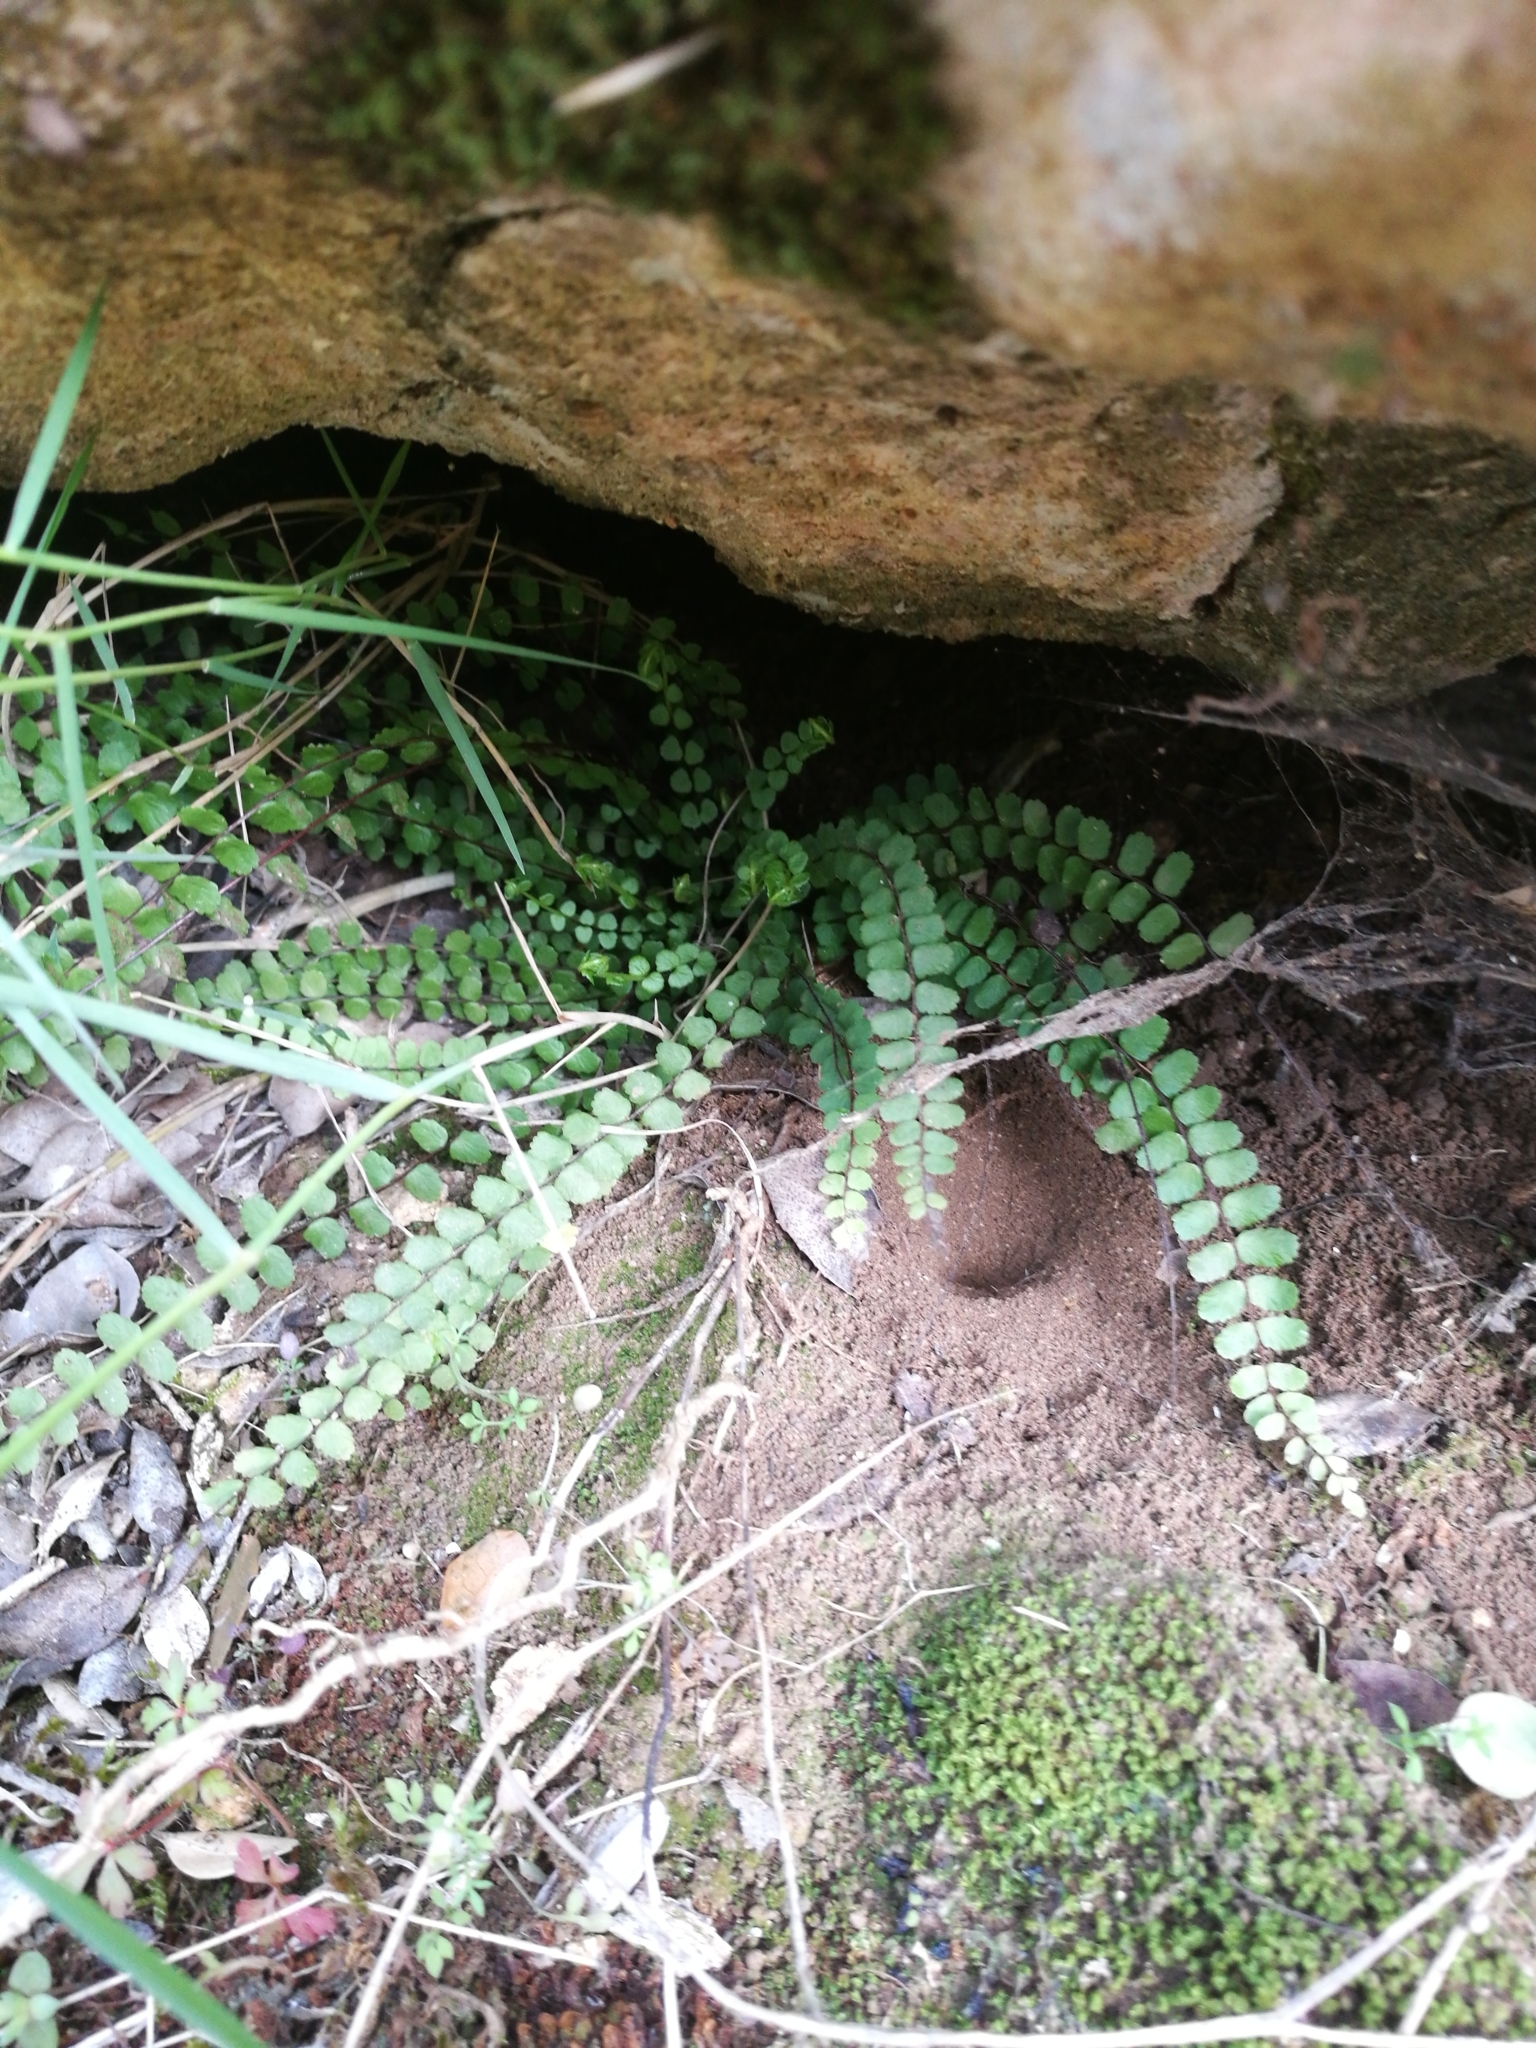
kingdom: Plantae
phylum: Tracheophyta
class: Polypodiopsida
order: Polypodiales
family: Aspleniaceae
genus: Asplenium
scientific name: Asplenium trichomanes
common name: Maidenhair spleenwort
